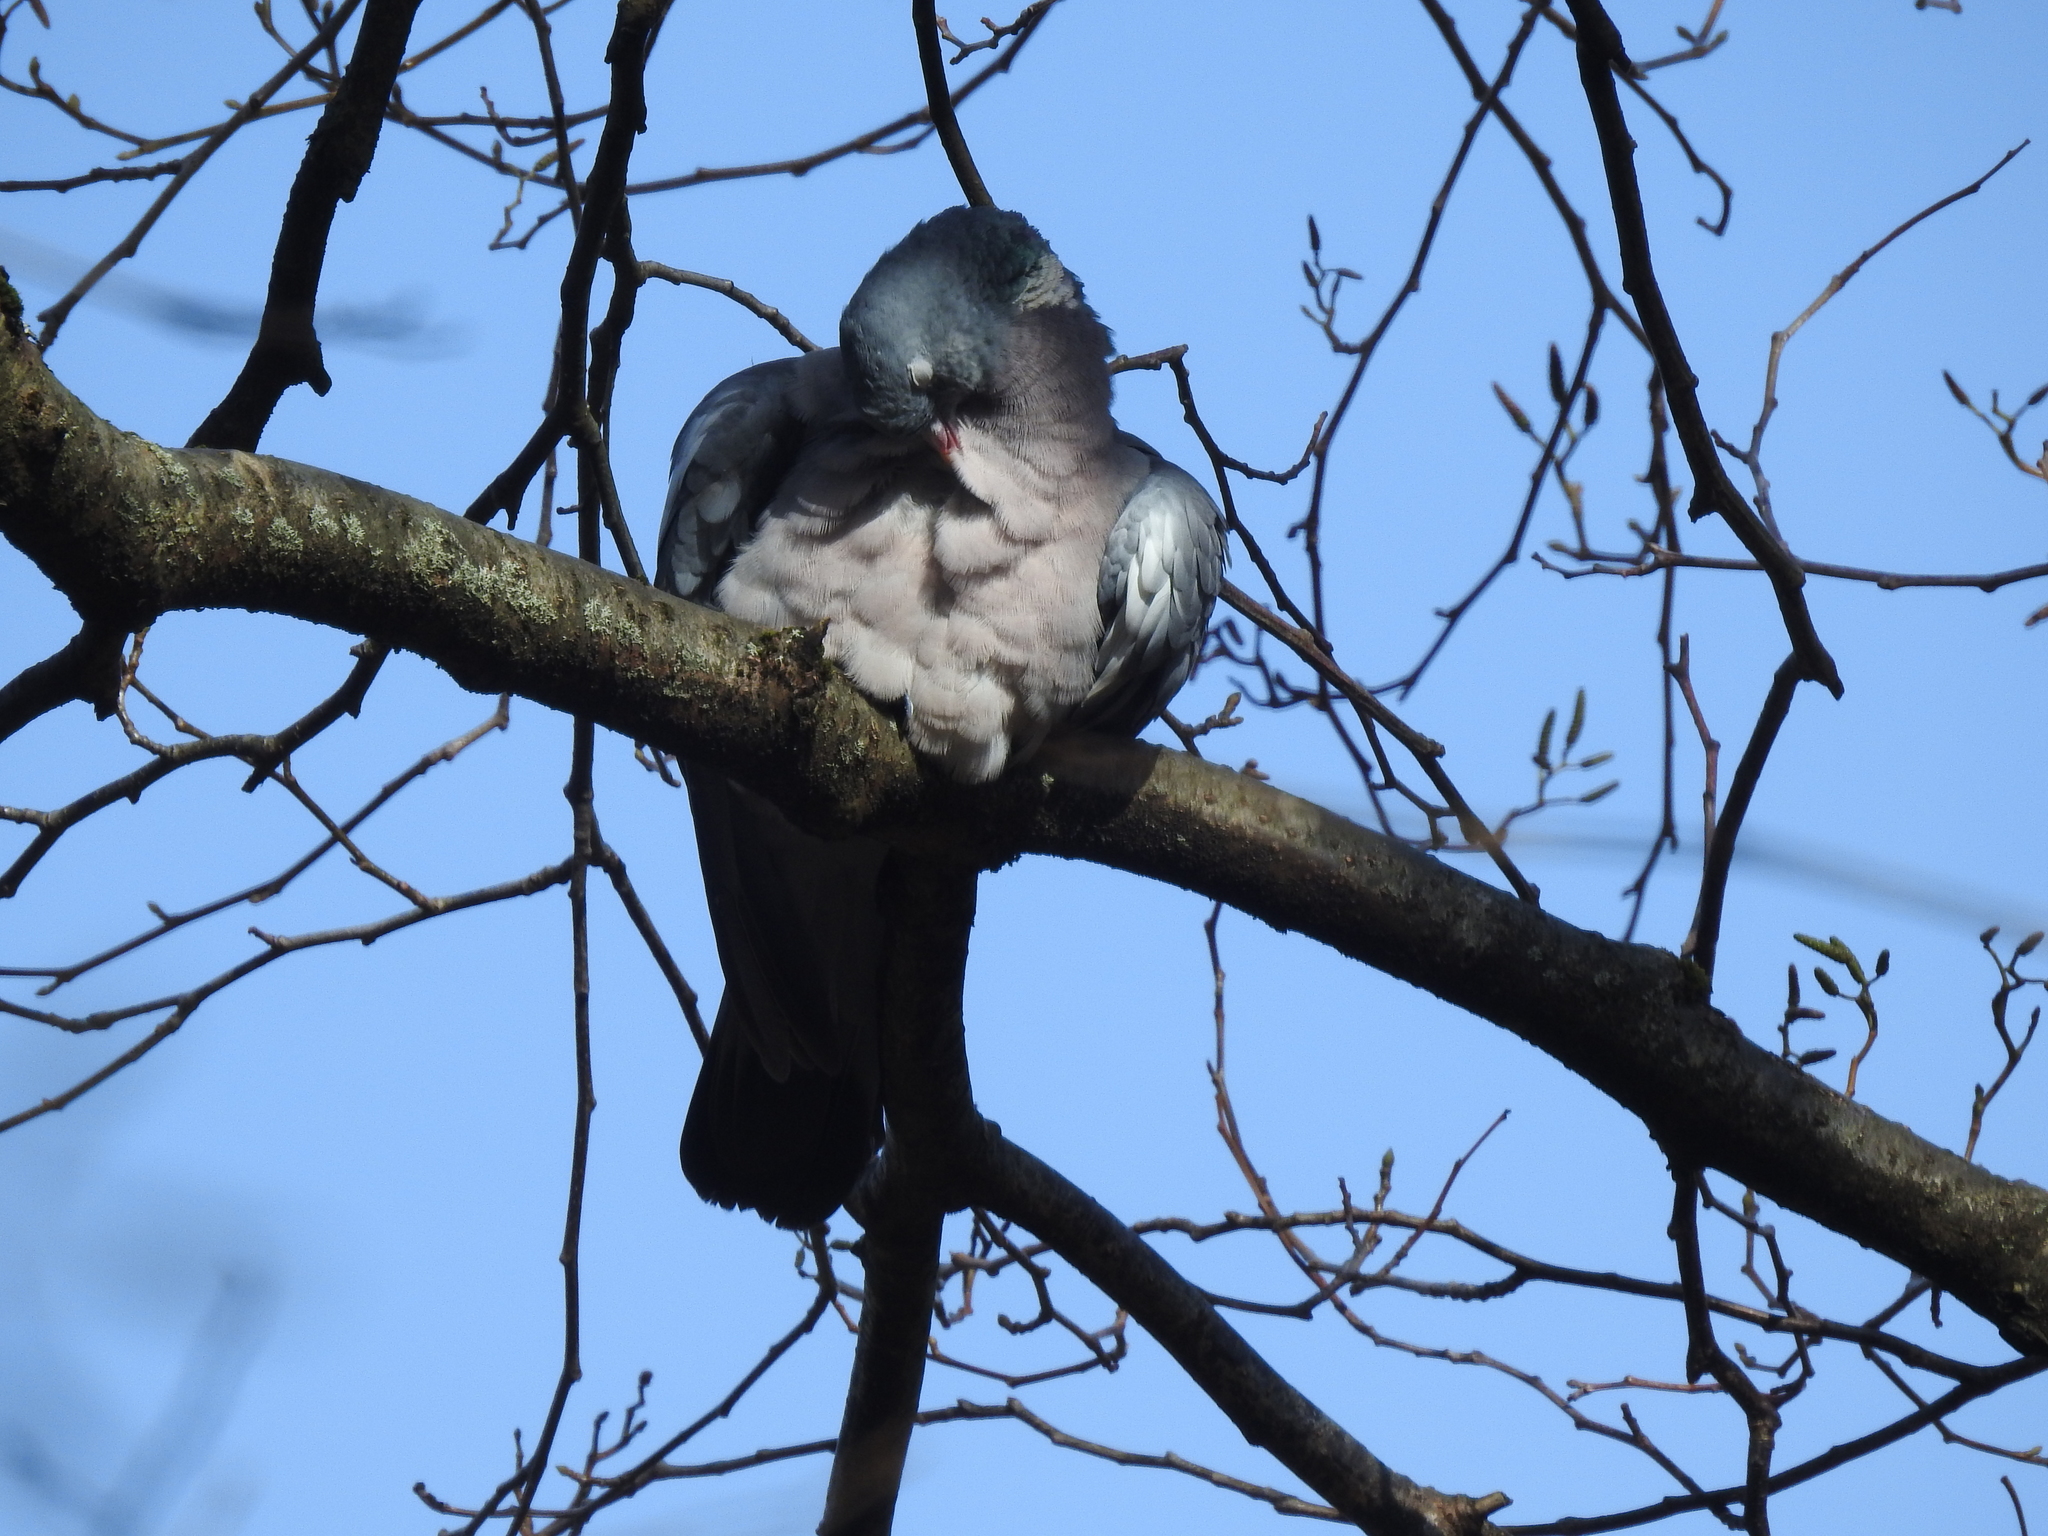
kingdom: Animalia
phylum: Chordata
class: Aves
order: Columbiformes
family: Columbidae
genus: Columba
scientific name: Columba palumbus
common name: Common wood pigeon
